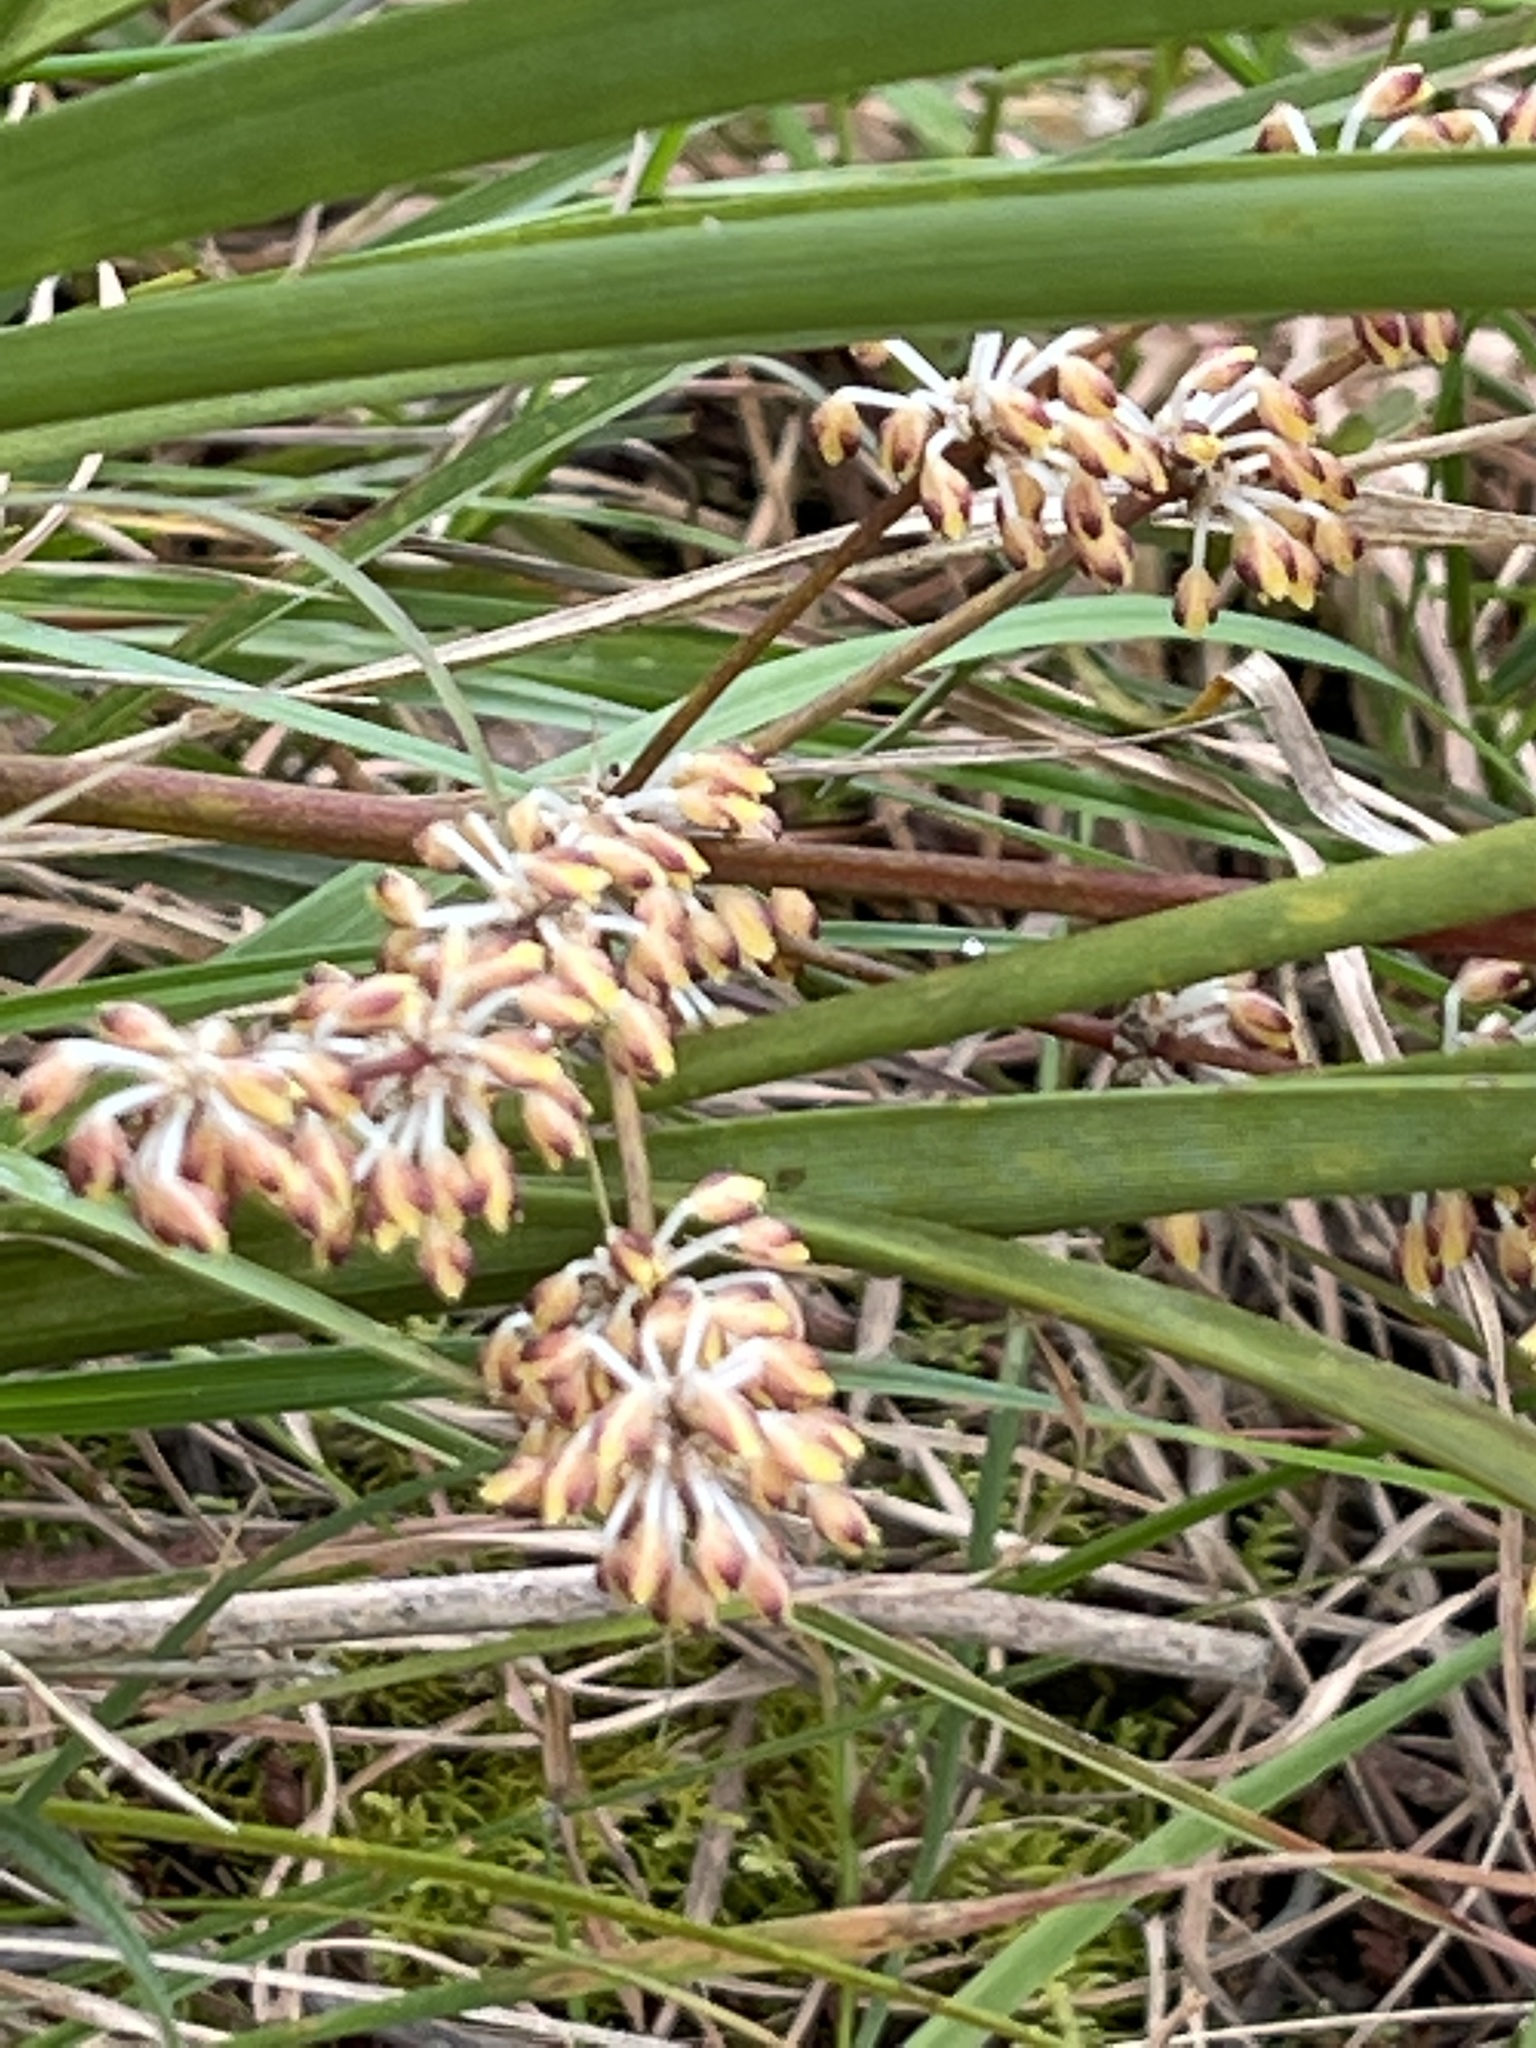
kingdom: Plantae
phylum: Tracheophyta
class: Liliopsida
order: Asparagales
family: Asparagaceae
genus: Lomandra
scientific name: Lomandra multiflora
